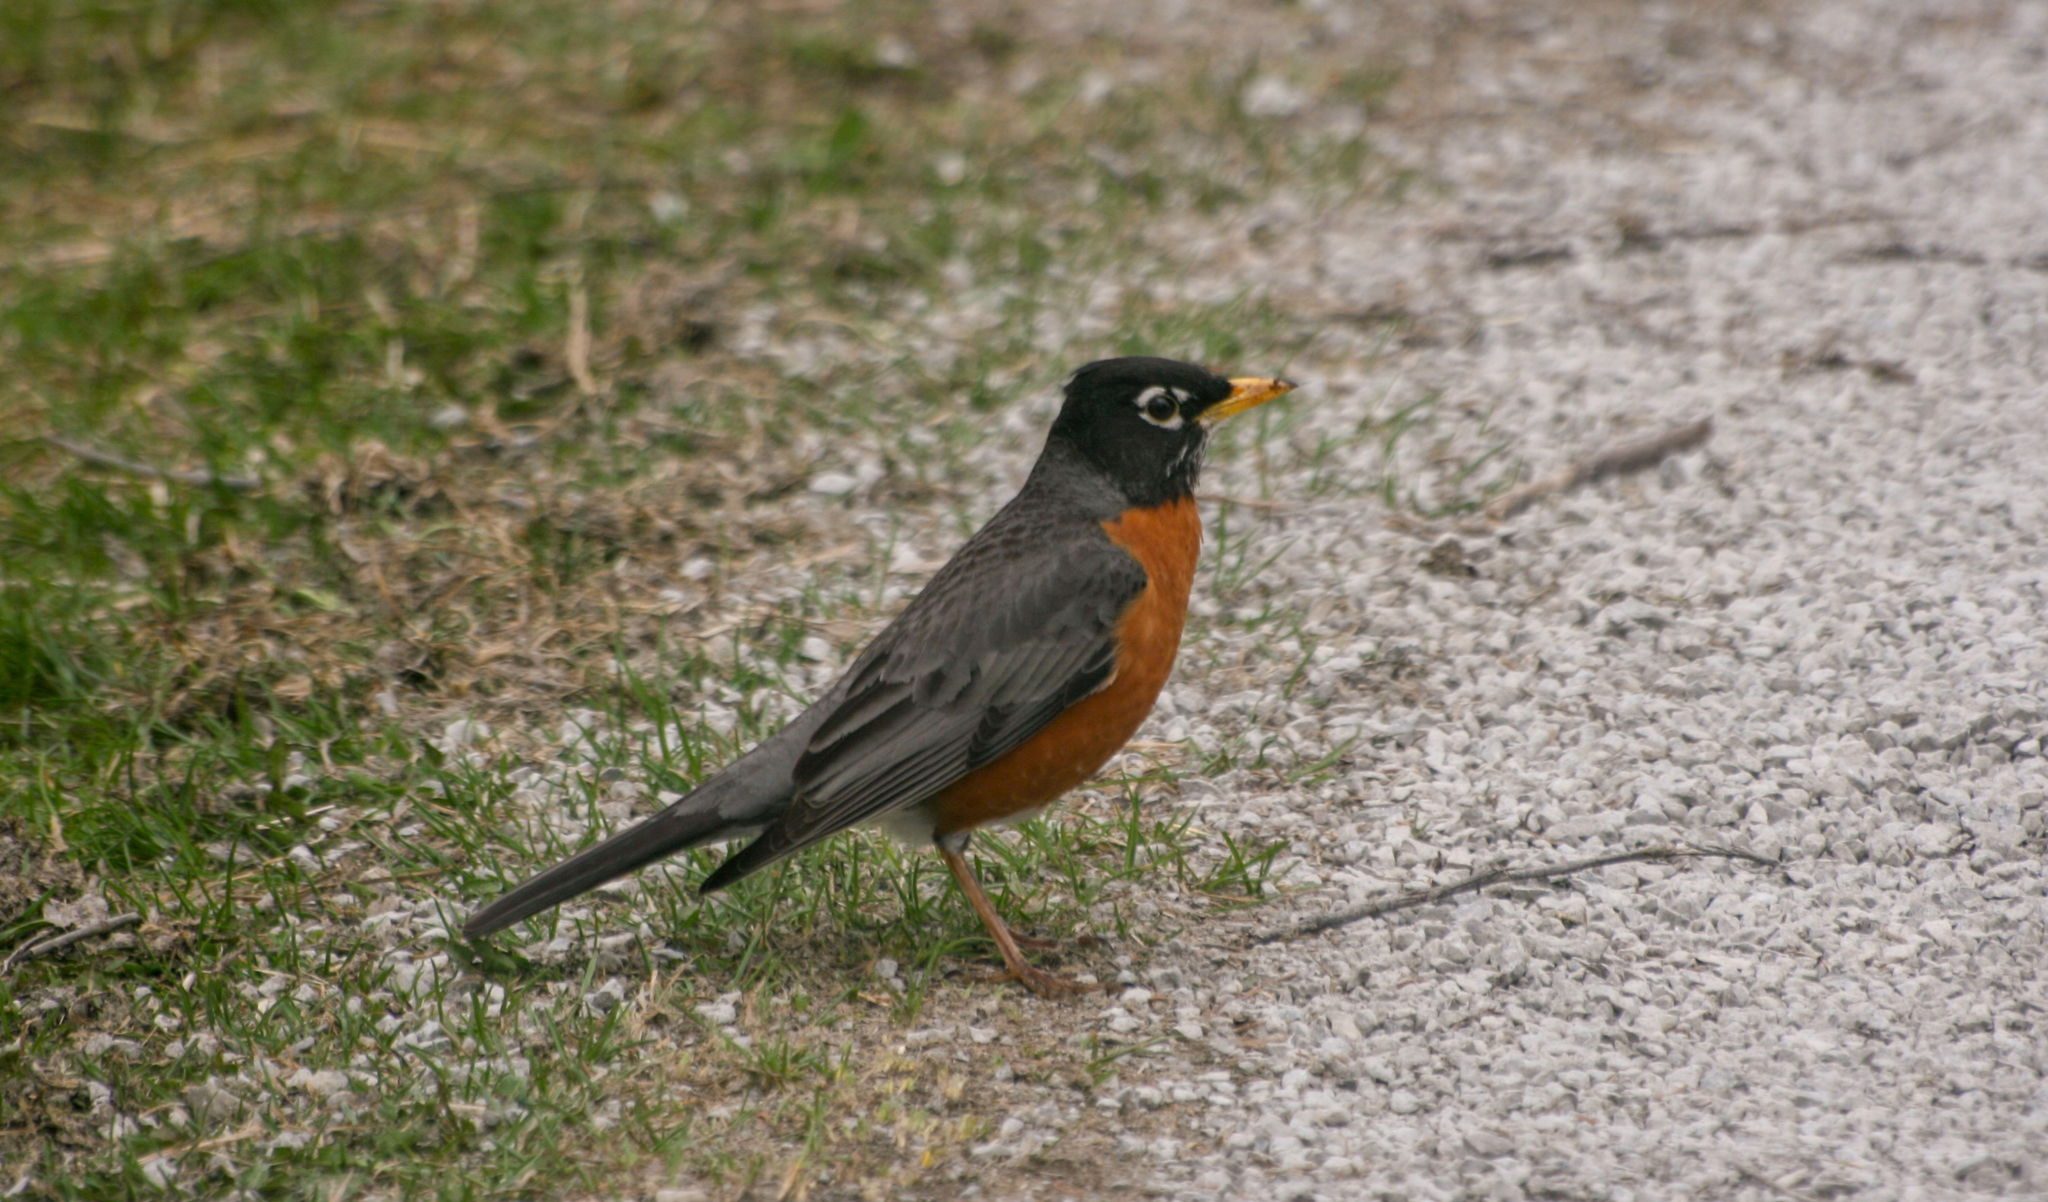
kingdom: Animalia
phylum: Chordata
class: Aves
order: Passeriformes
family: Turdidae
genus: Turdus
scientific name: Turdus migratorius
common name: American robin
